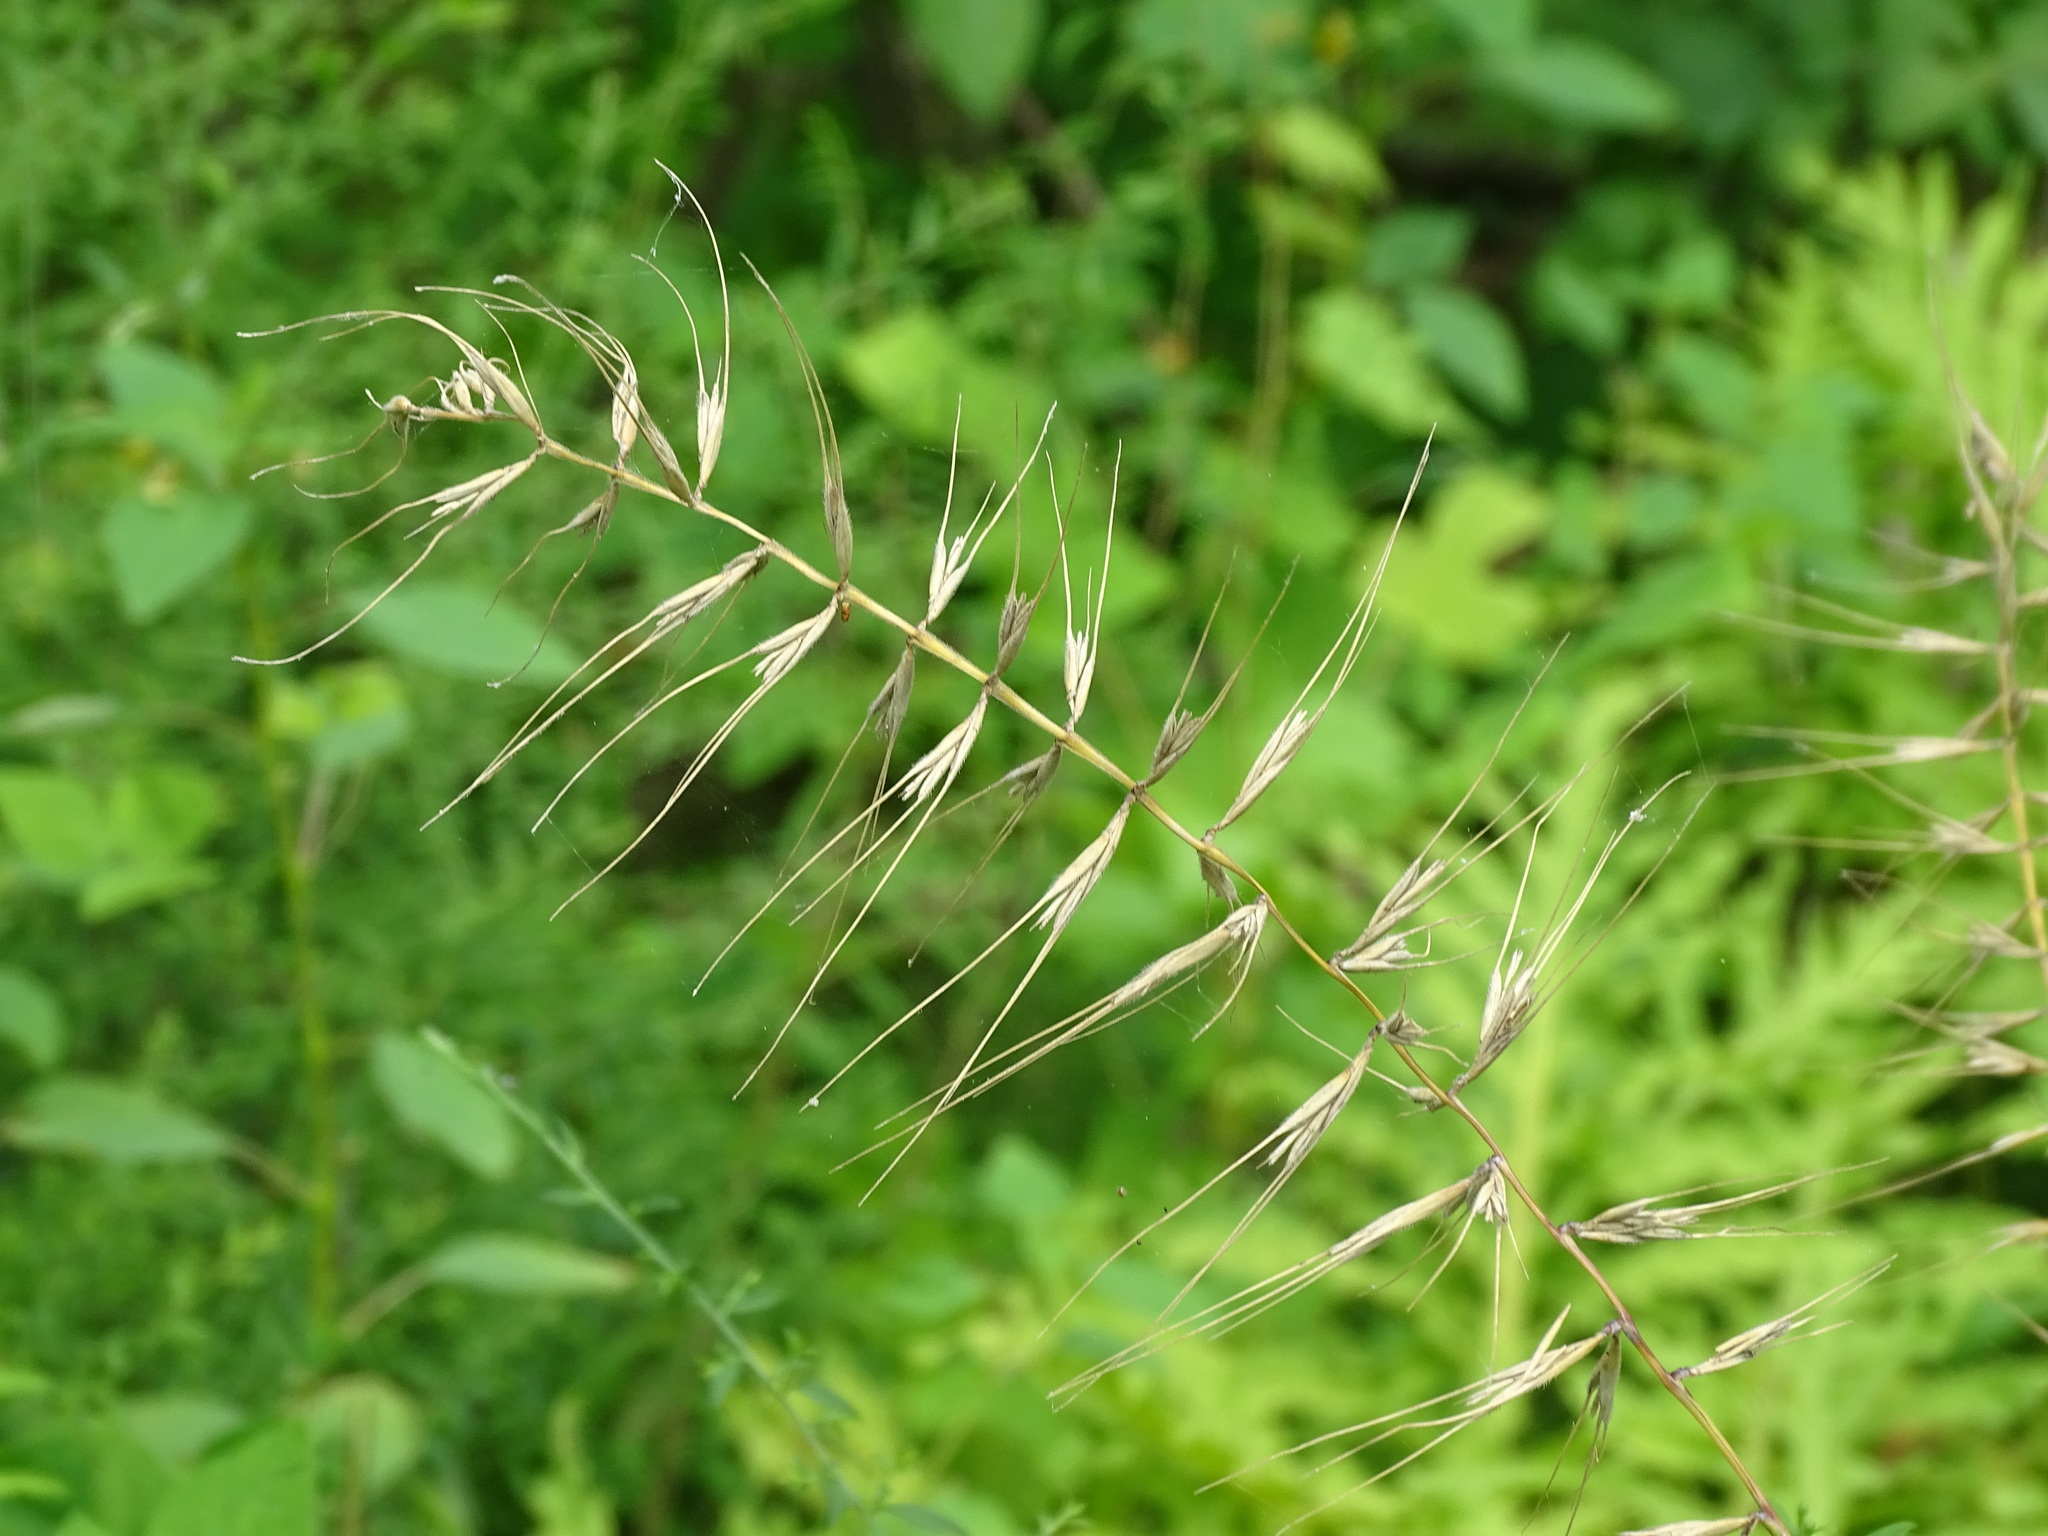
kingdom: Plantae
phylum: Tracheophyta
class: Liliopsida
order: Poales
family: Poaceae
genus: Elymus
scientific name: Elymus hystrix
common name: Bottlebrush grass
